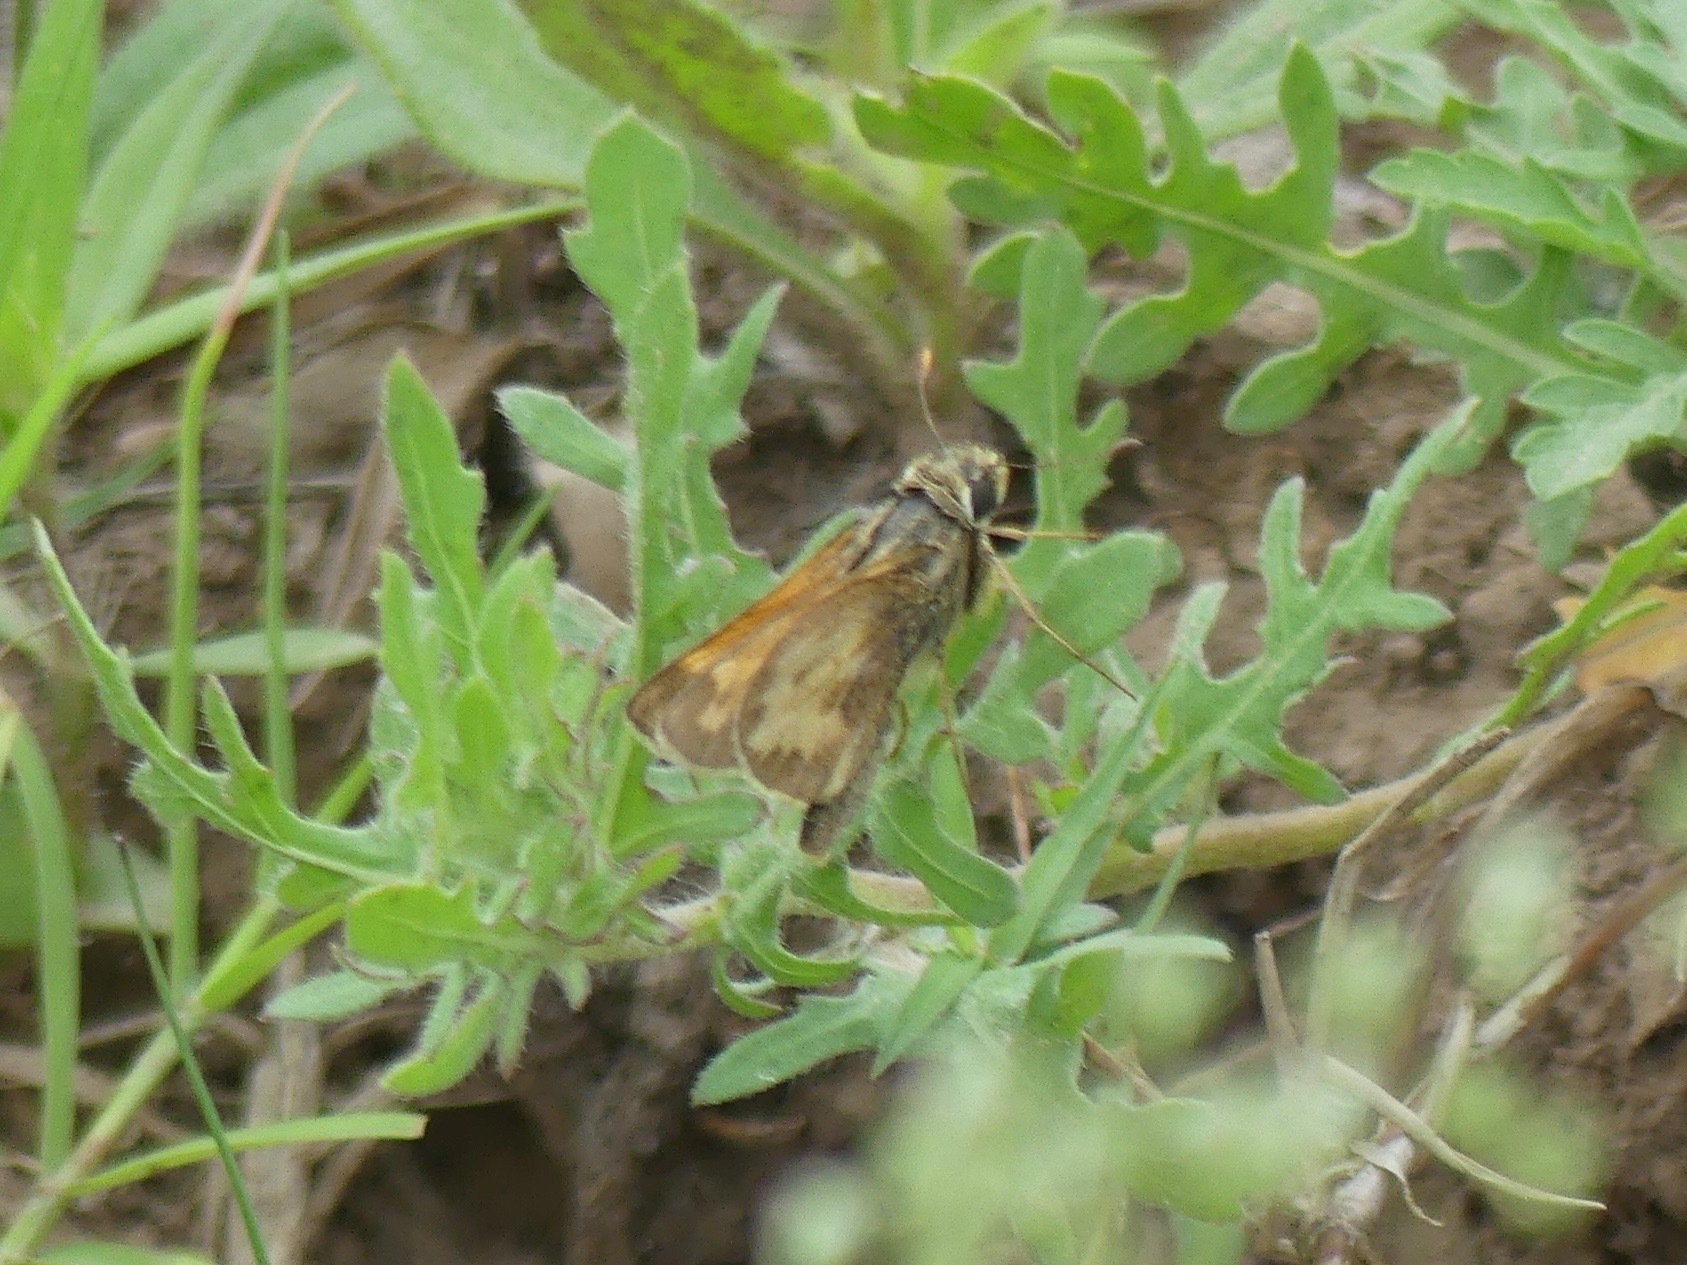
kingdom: Animalia
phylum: Arthropoda
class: Insecta
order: Lepidoptera
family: Hesperiidae
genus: Atalopedes
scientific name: Atalopedes
